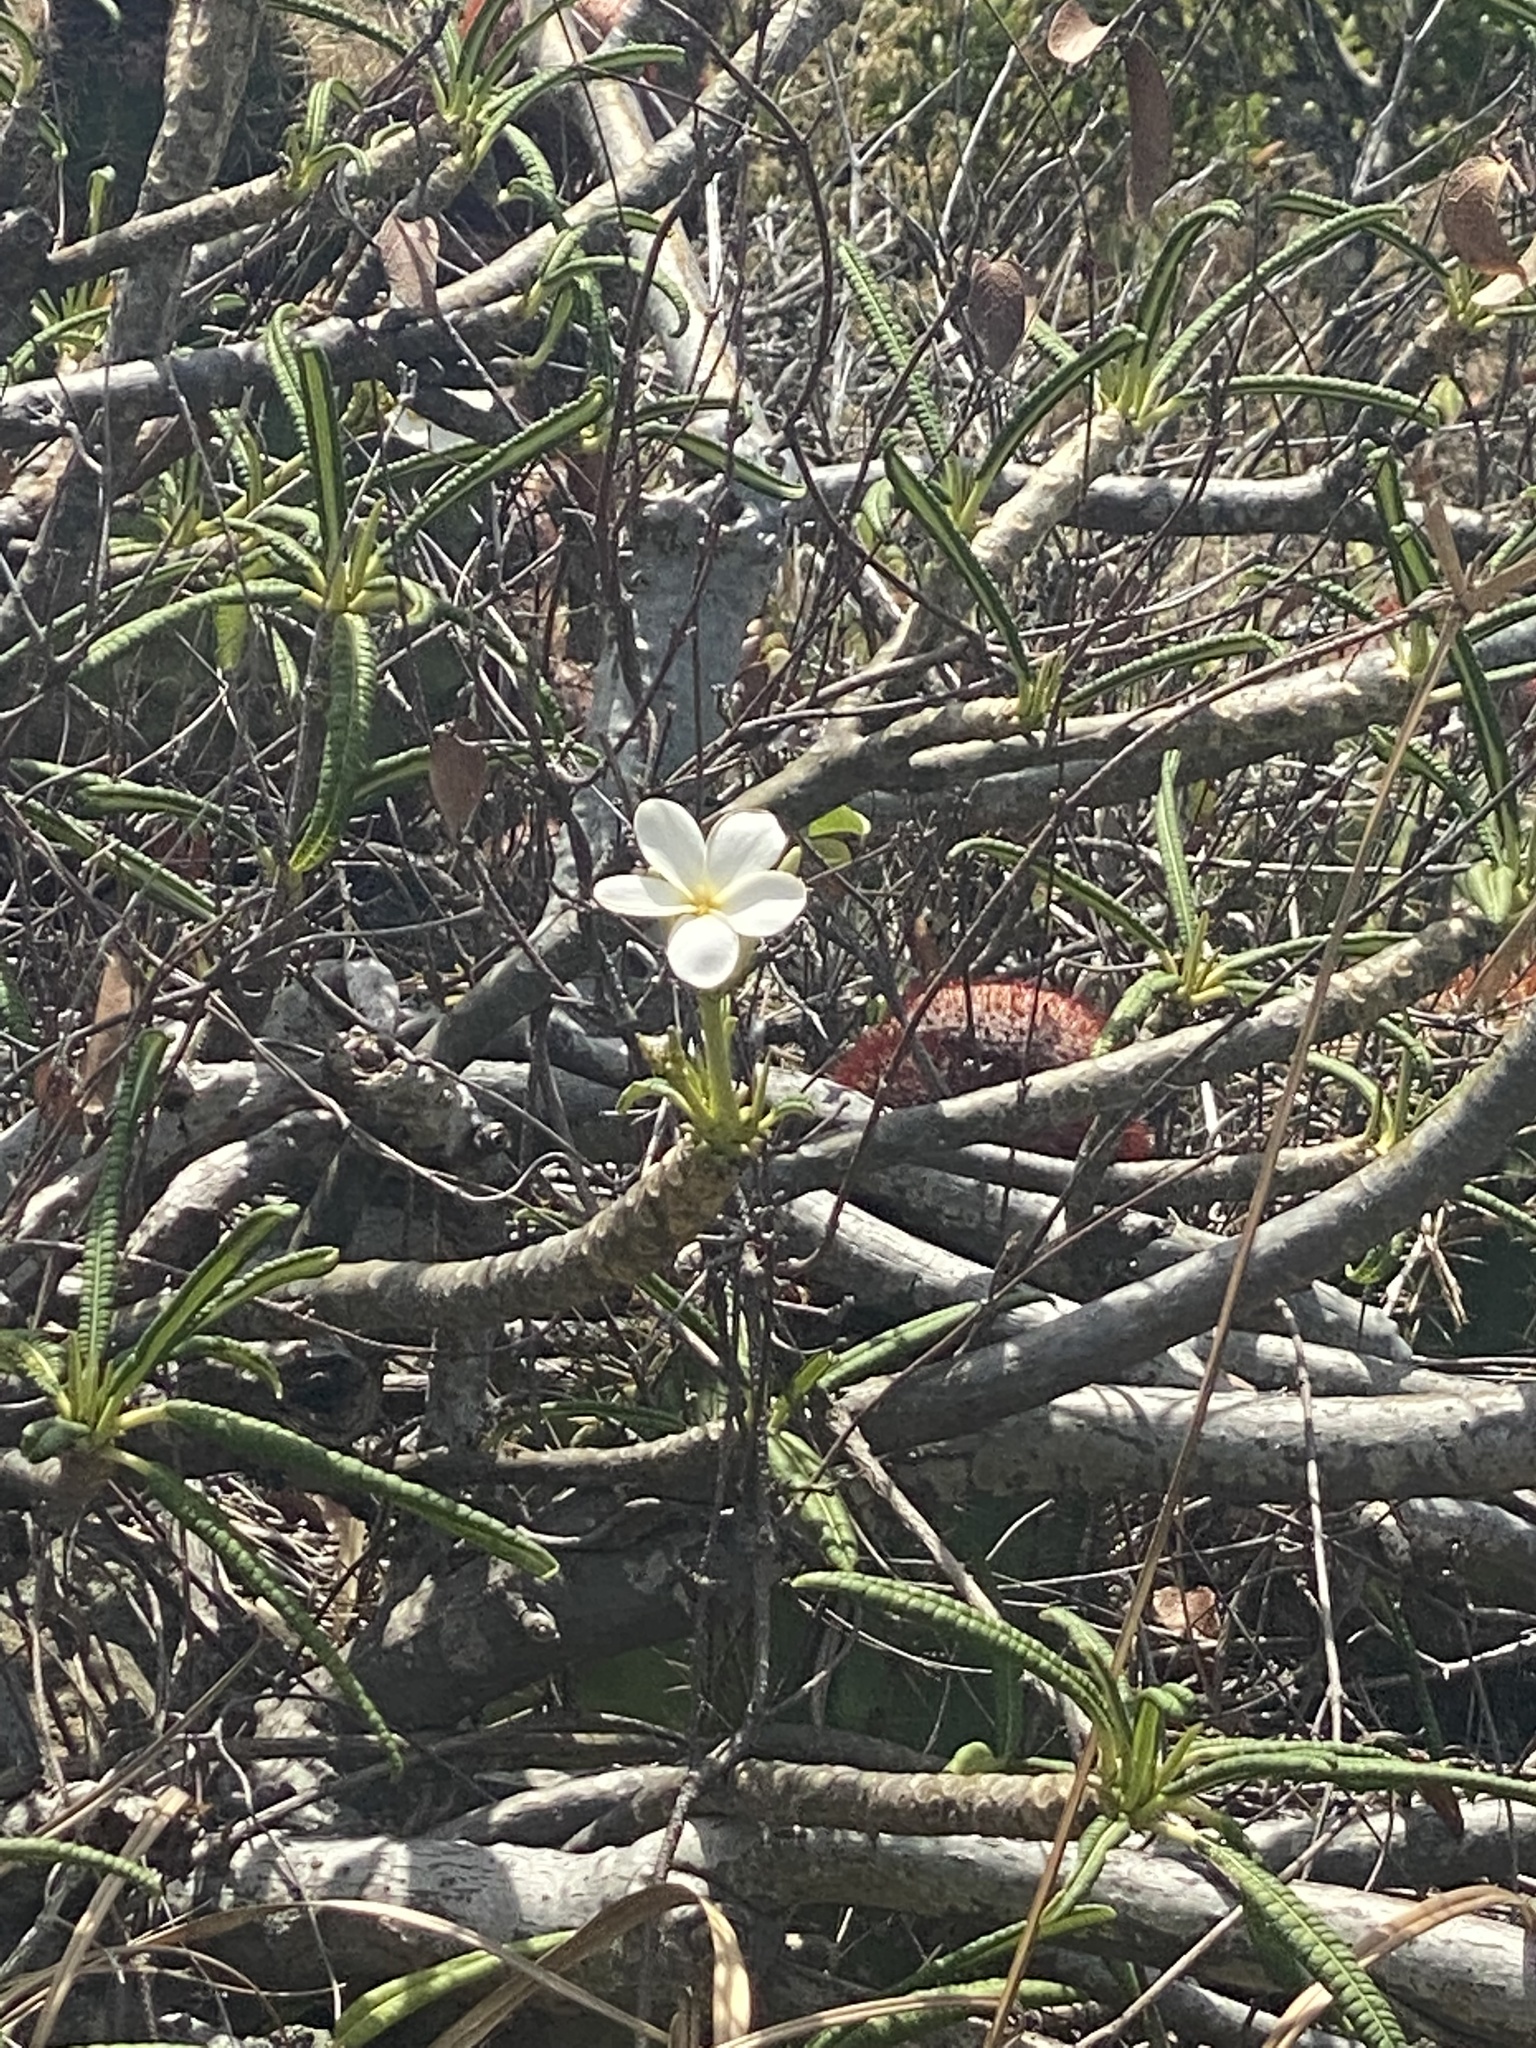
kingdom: Plantae
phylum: Tracheophyta
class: Magnoliopsida
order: Gentianales
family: Apocynaceae
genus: Plumeria
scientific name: Plumeria alba
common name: Wild frangipani
